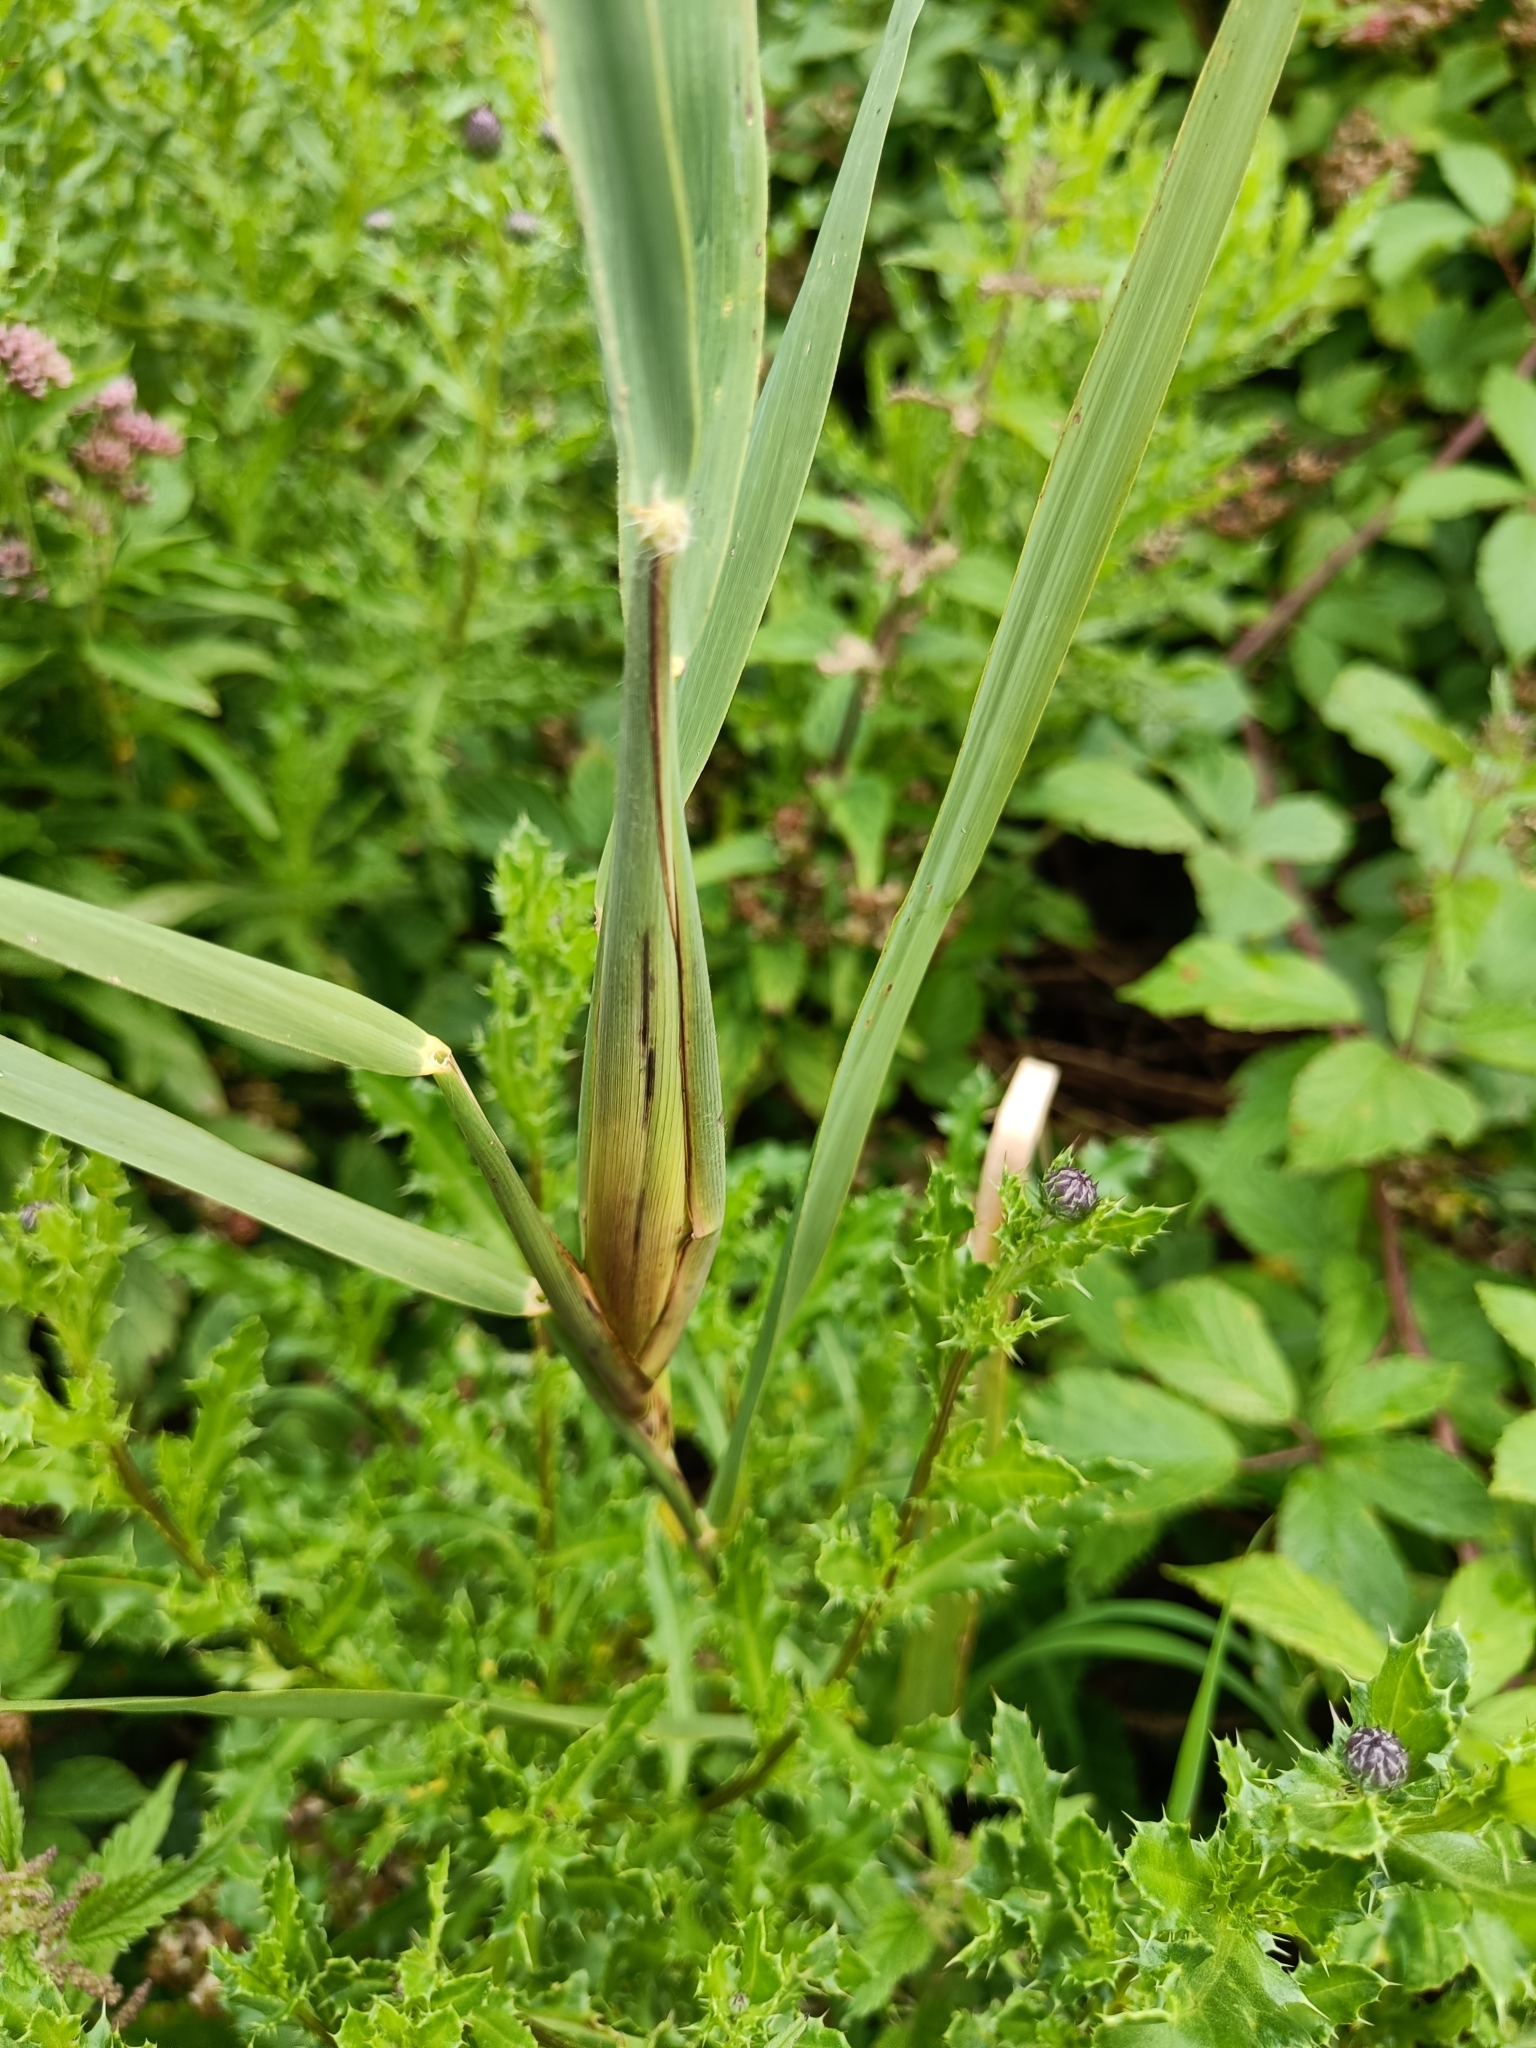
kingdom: Animalia
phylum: Arthropoda
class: Insecta
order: Diptera
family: Chloropidae
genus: Lipara
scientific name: Lipara lucens
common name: Frit fly
